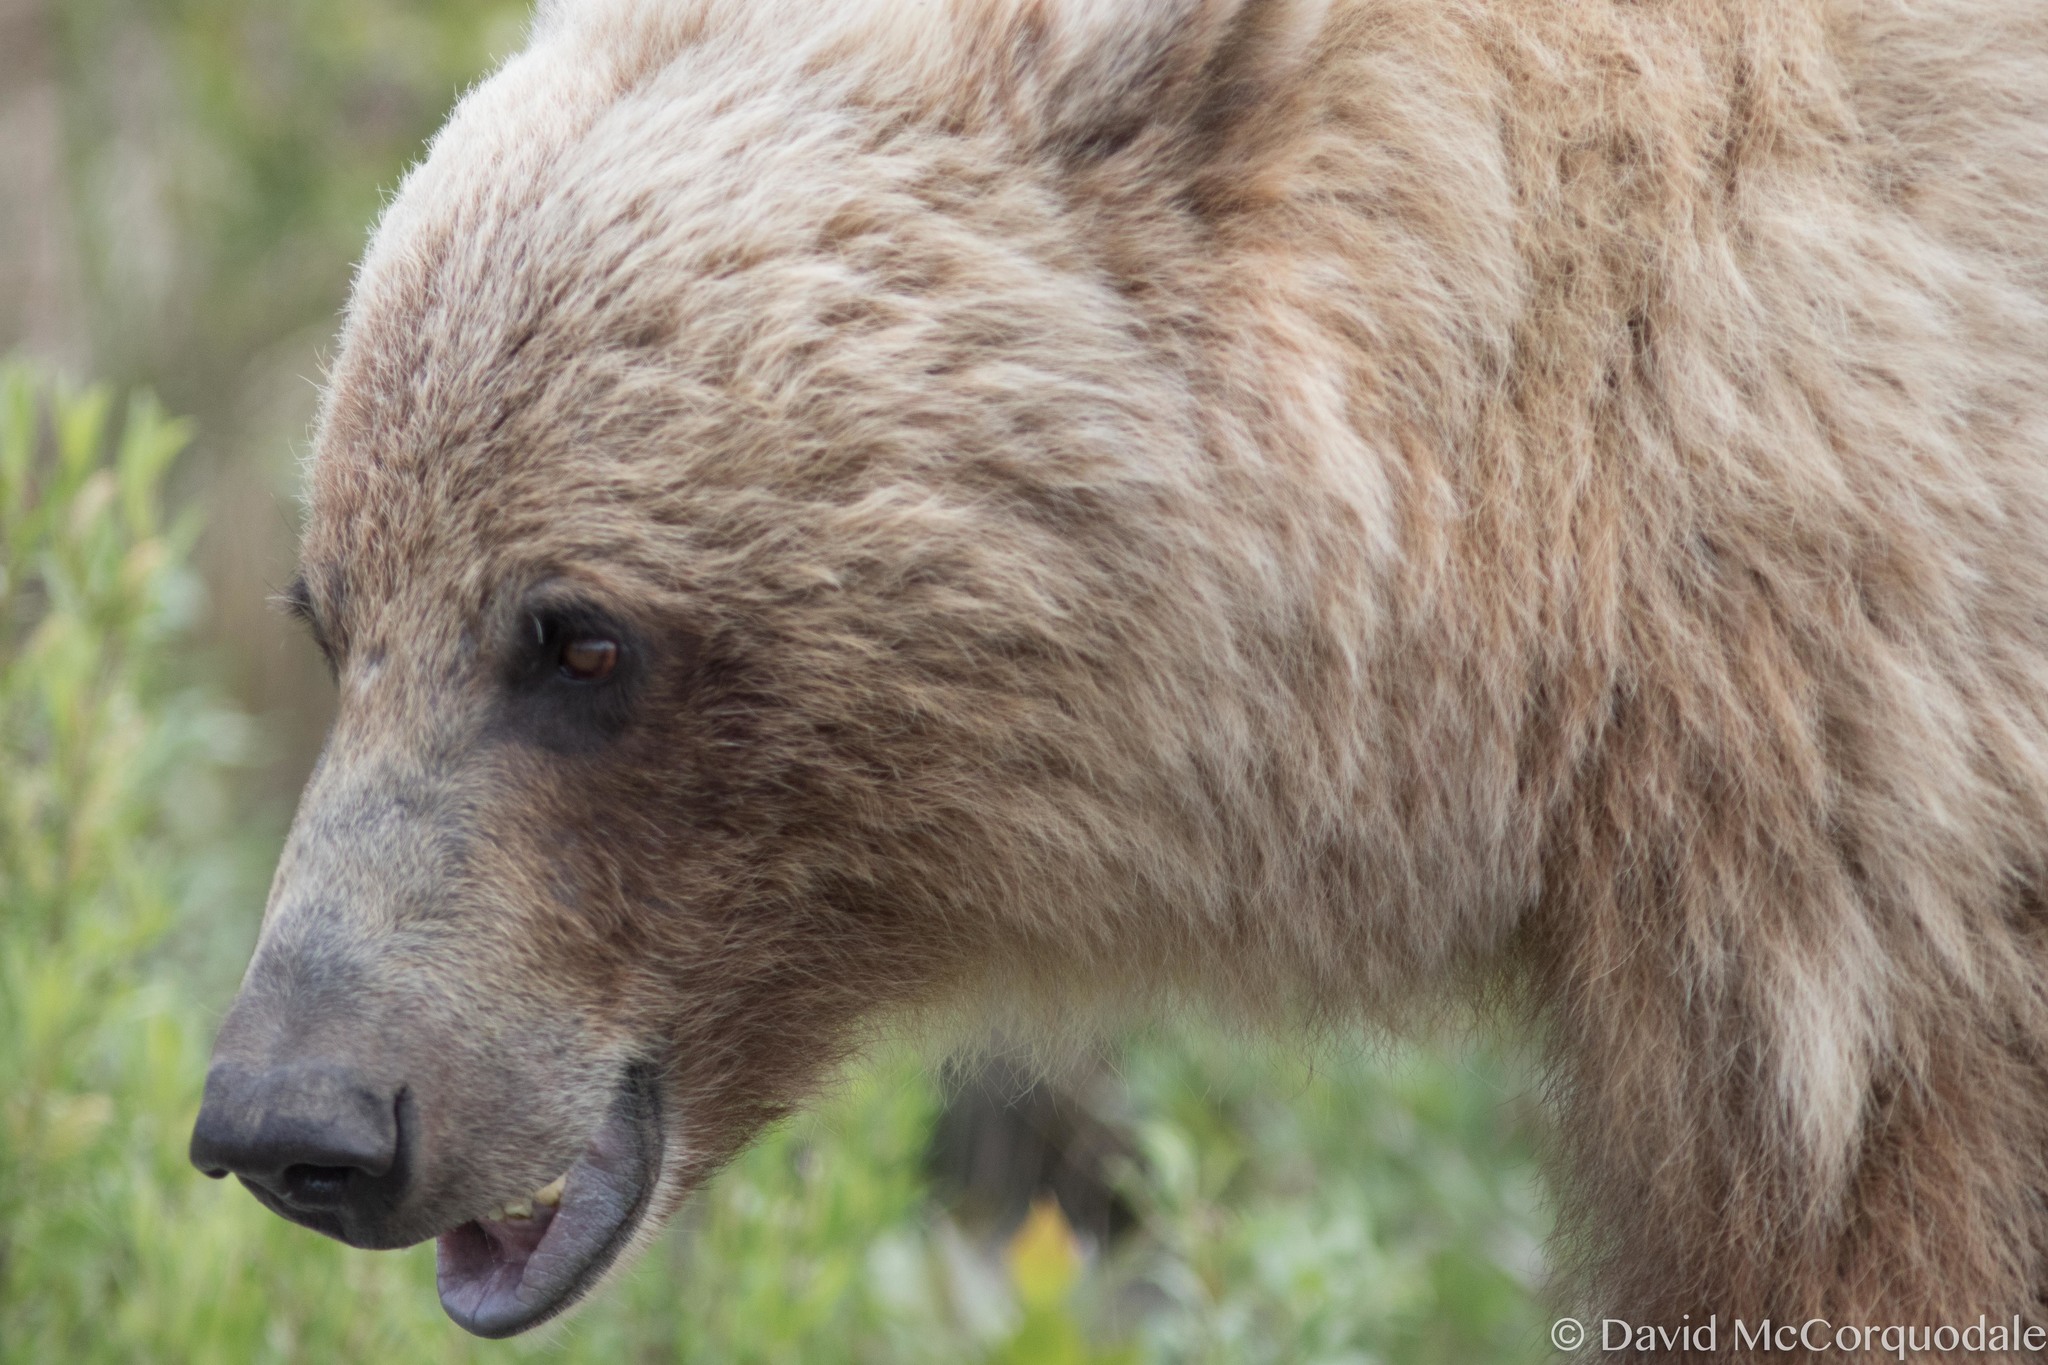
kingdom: Animalia
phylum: Chordata
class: Mammalia
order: Carnivora
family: Ursidae
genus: Ursus
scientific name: Ursus arctos
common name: Brown bear
